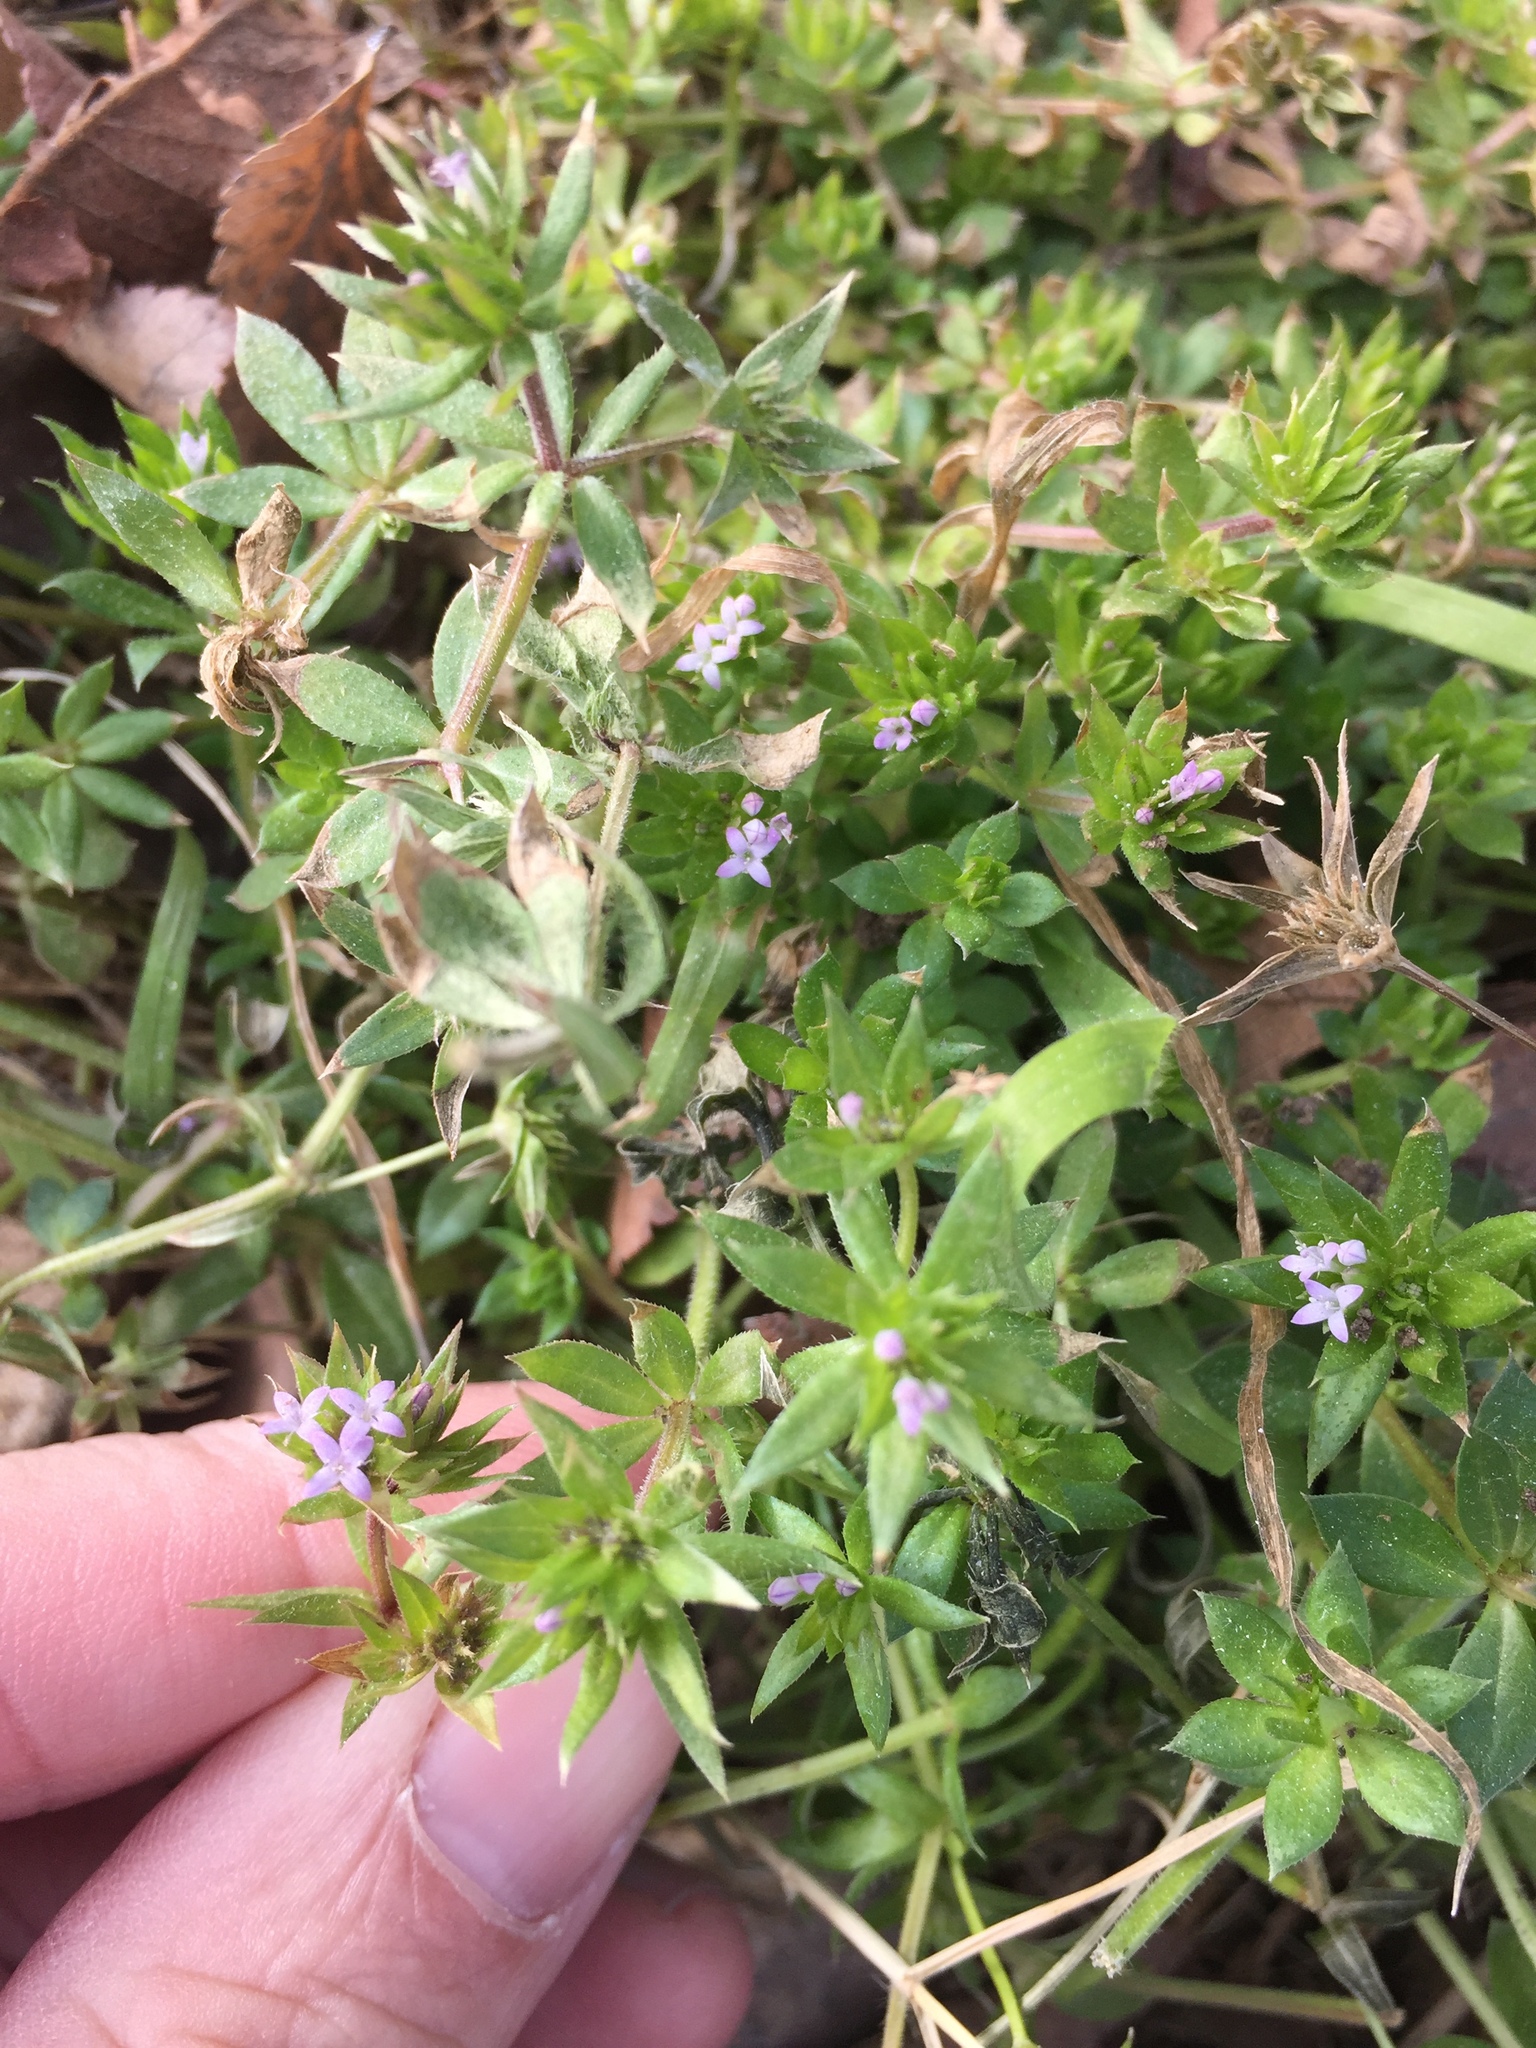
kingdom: Plantae
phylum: Tracheophyta
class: Magnoliopsida
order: Gentianales
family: Rubiaceae
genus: Sherardia
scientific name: Sherardia arvensis
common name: Field madder
